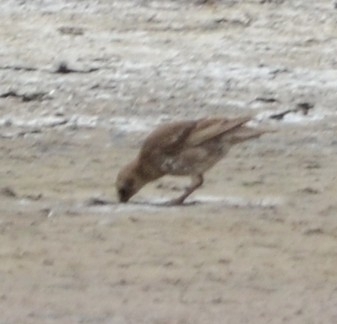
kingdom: Animalia
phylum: Chordata
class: Aves
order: Passeriformes
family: Sturnidae
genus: Sturnus
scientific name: Sturnus vulgaris
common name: Common starling
